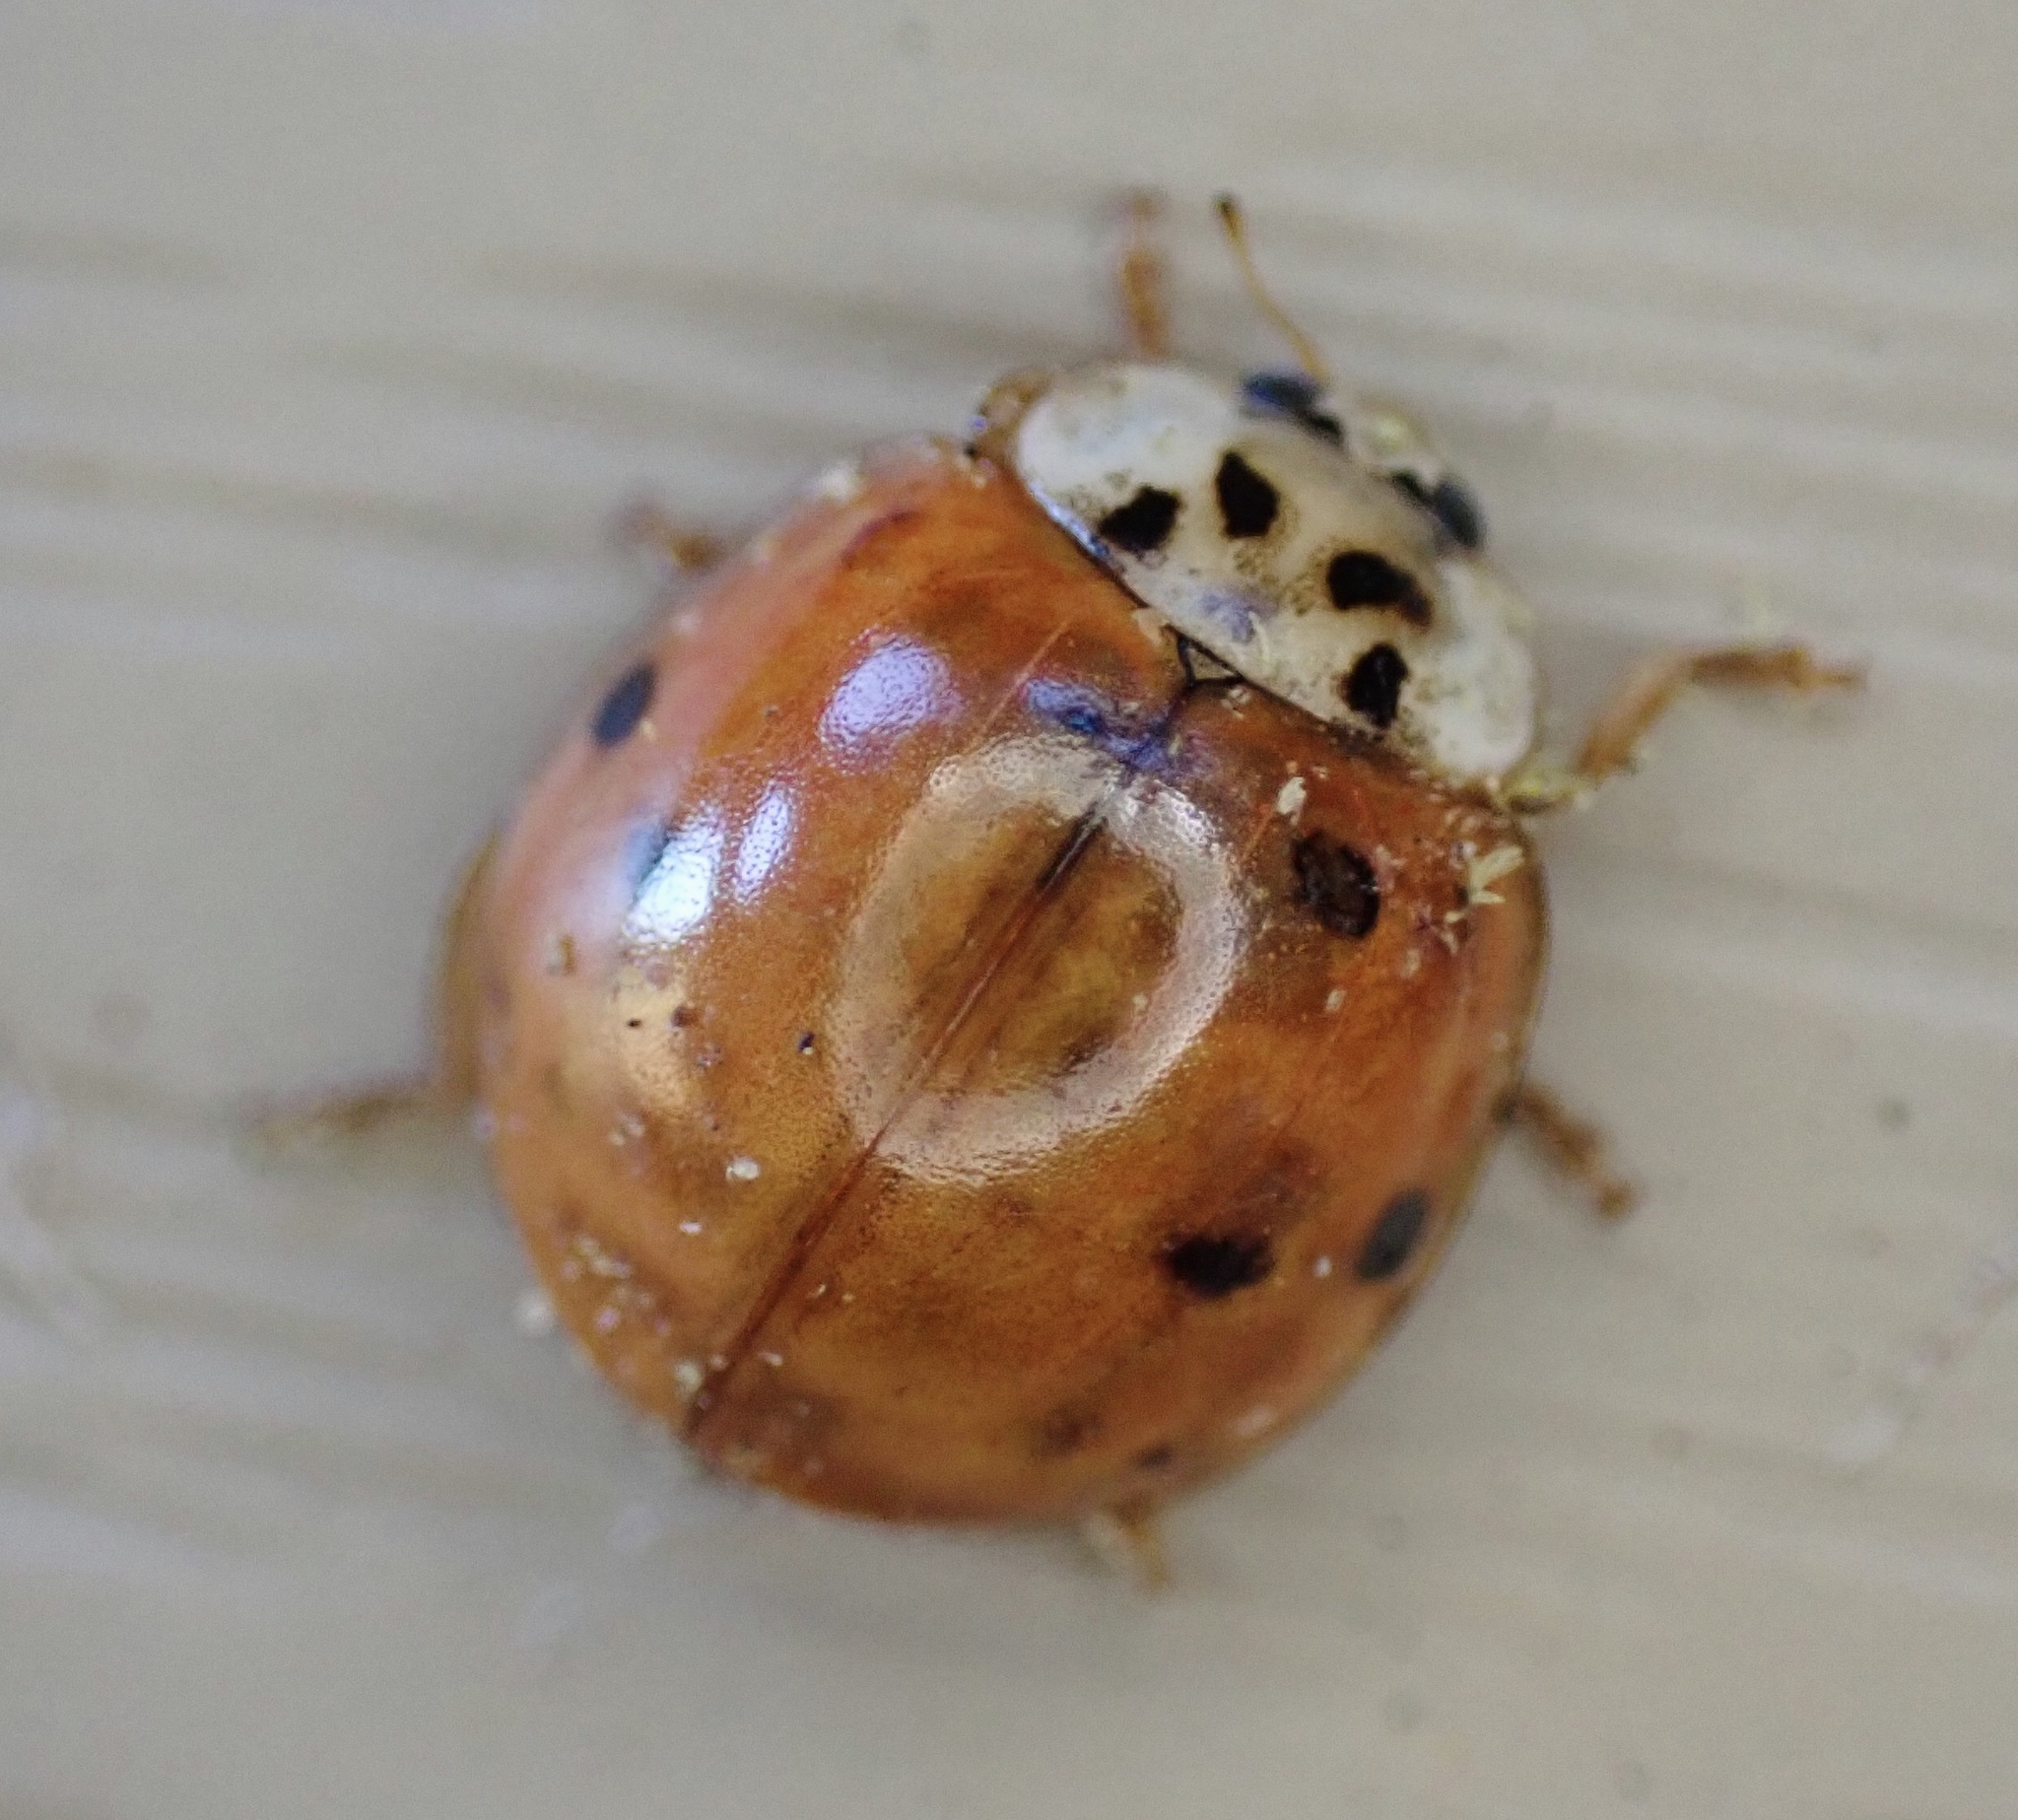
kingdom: Animalia
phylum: Arthropoda
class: Insecta
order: Coleoptera
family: Coccinellidae
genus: Harmonia
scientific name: Harmonia axyridis
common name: Harlequin ladybird
